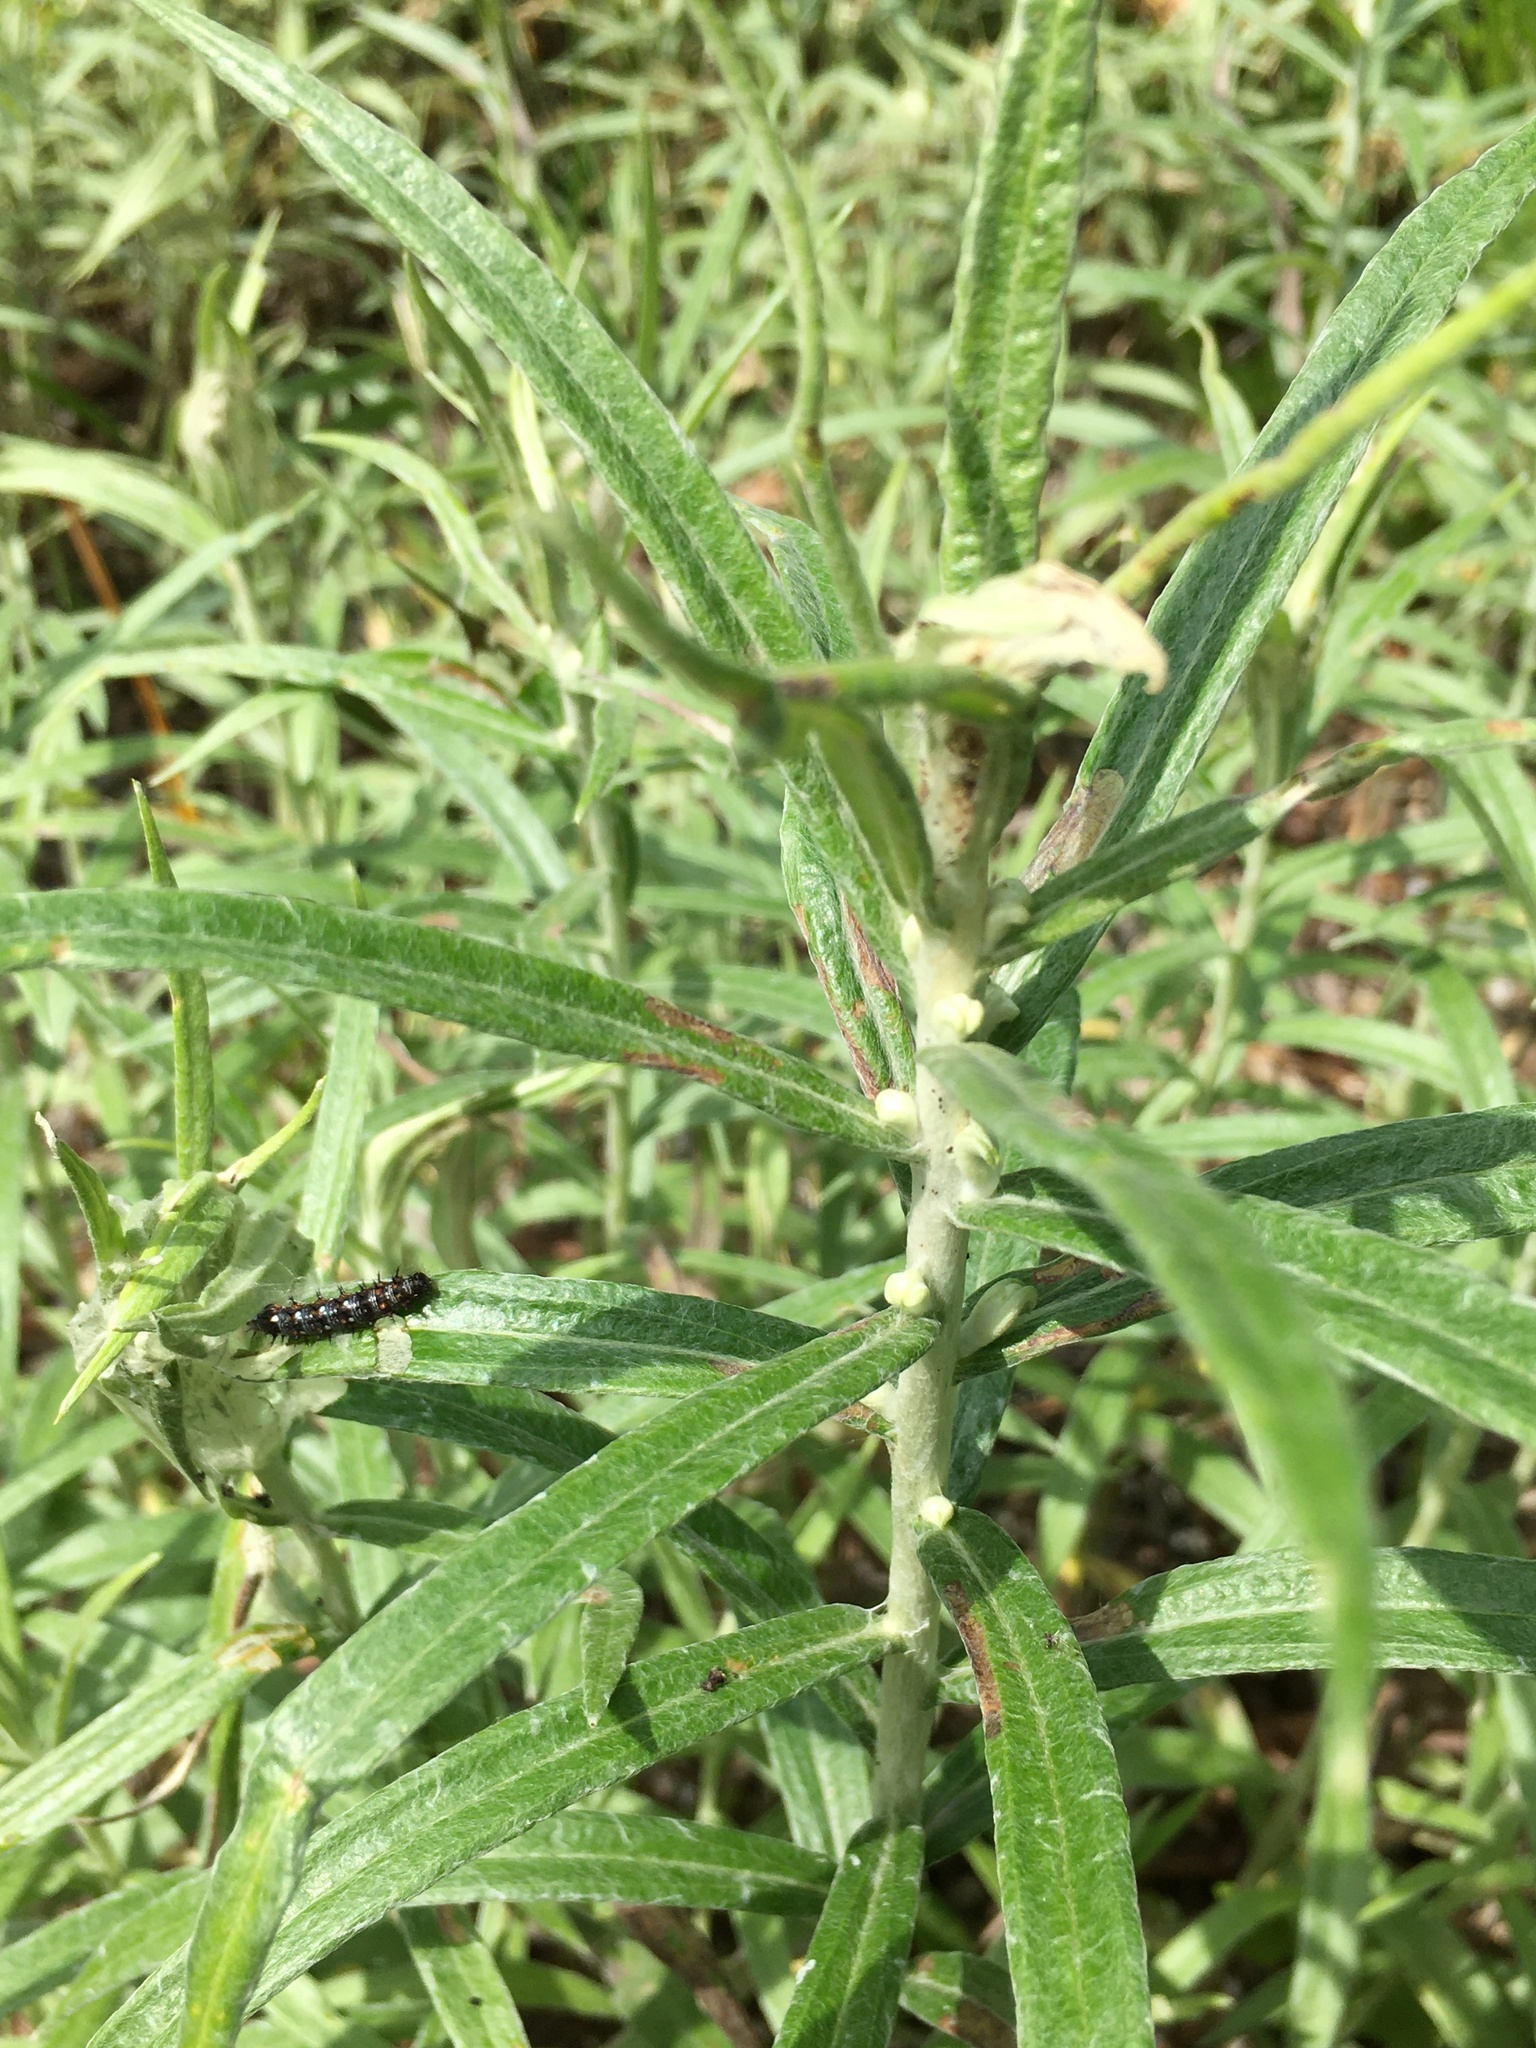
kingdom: Plantae
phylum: Tracheophyta
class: Magnoliopsida
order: Asterales
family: Asteraceae
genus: Anaphalis
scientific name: Anaphalis margaritacea
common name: Pearly everlasting
